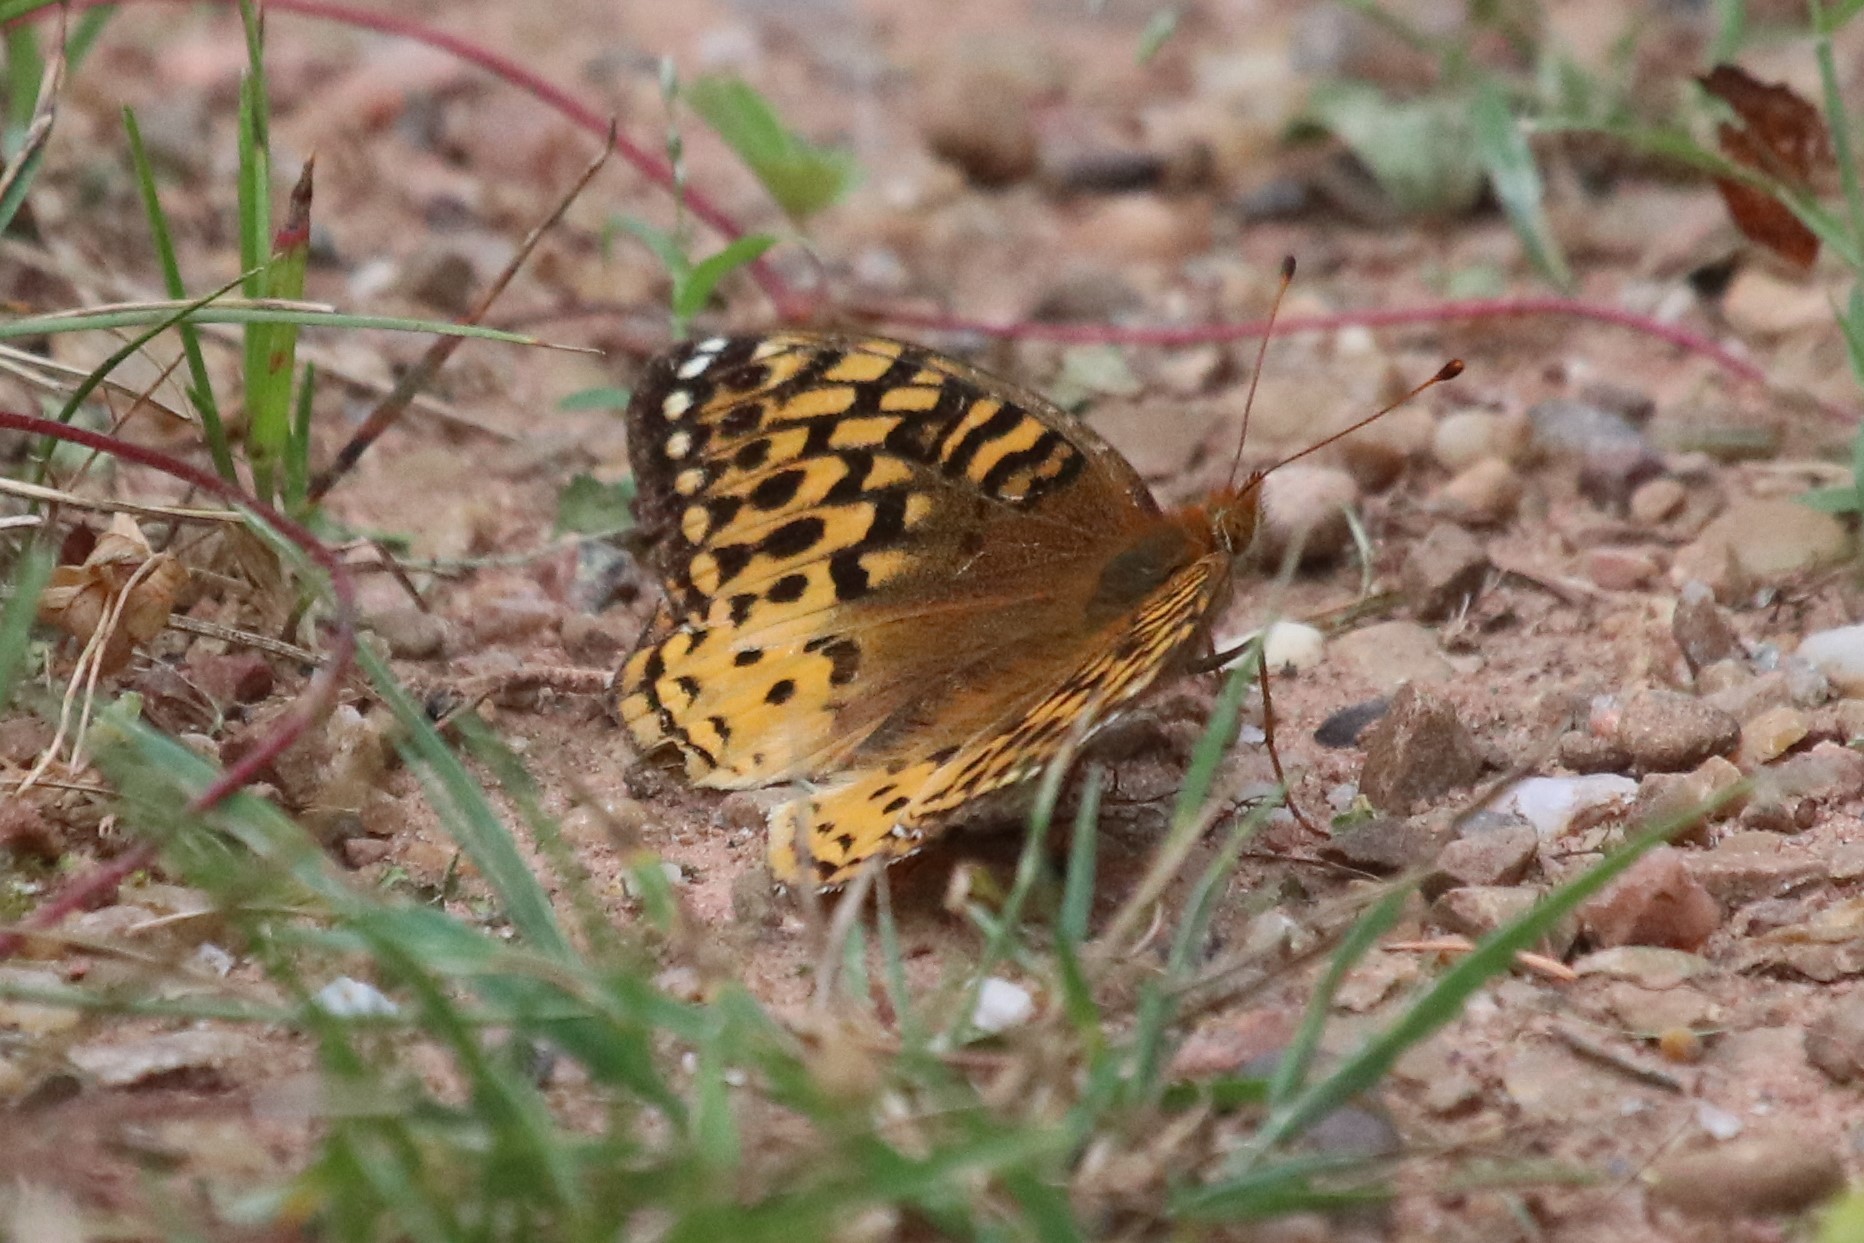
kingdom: Animalia
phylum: Arthropoda
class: Insecta
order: Lepidoptera
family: Nymphalidae
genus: Speyeria
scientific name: Speyeria atlantis
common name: Atlantis fritillary
